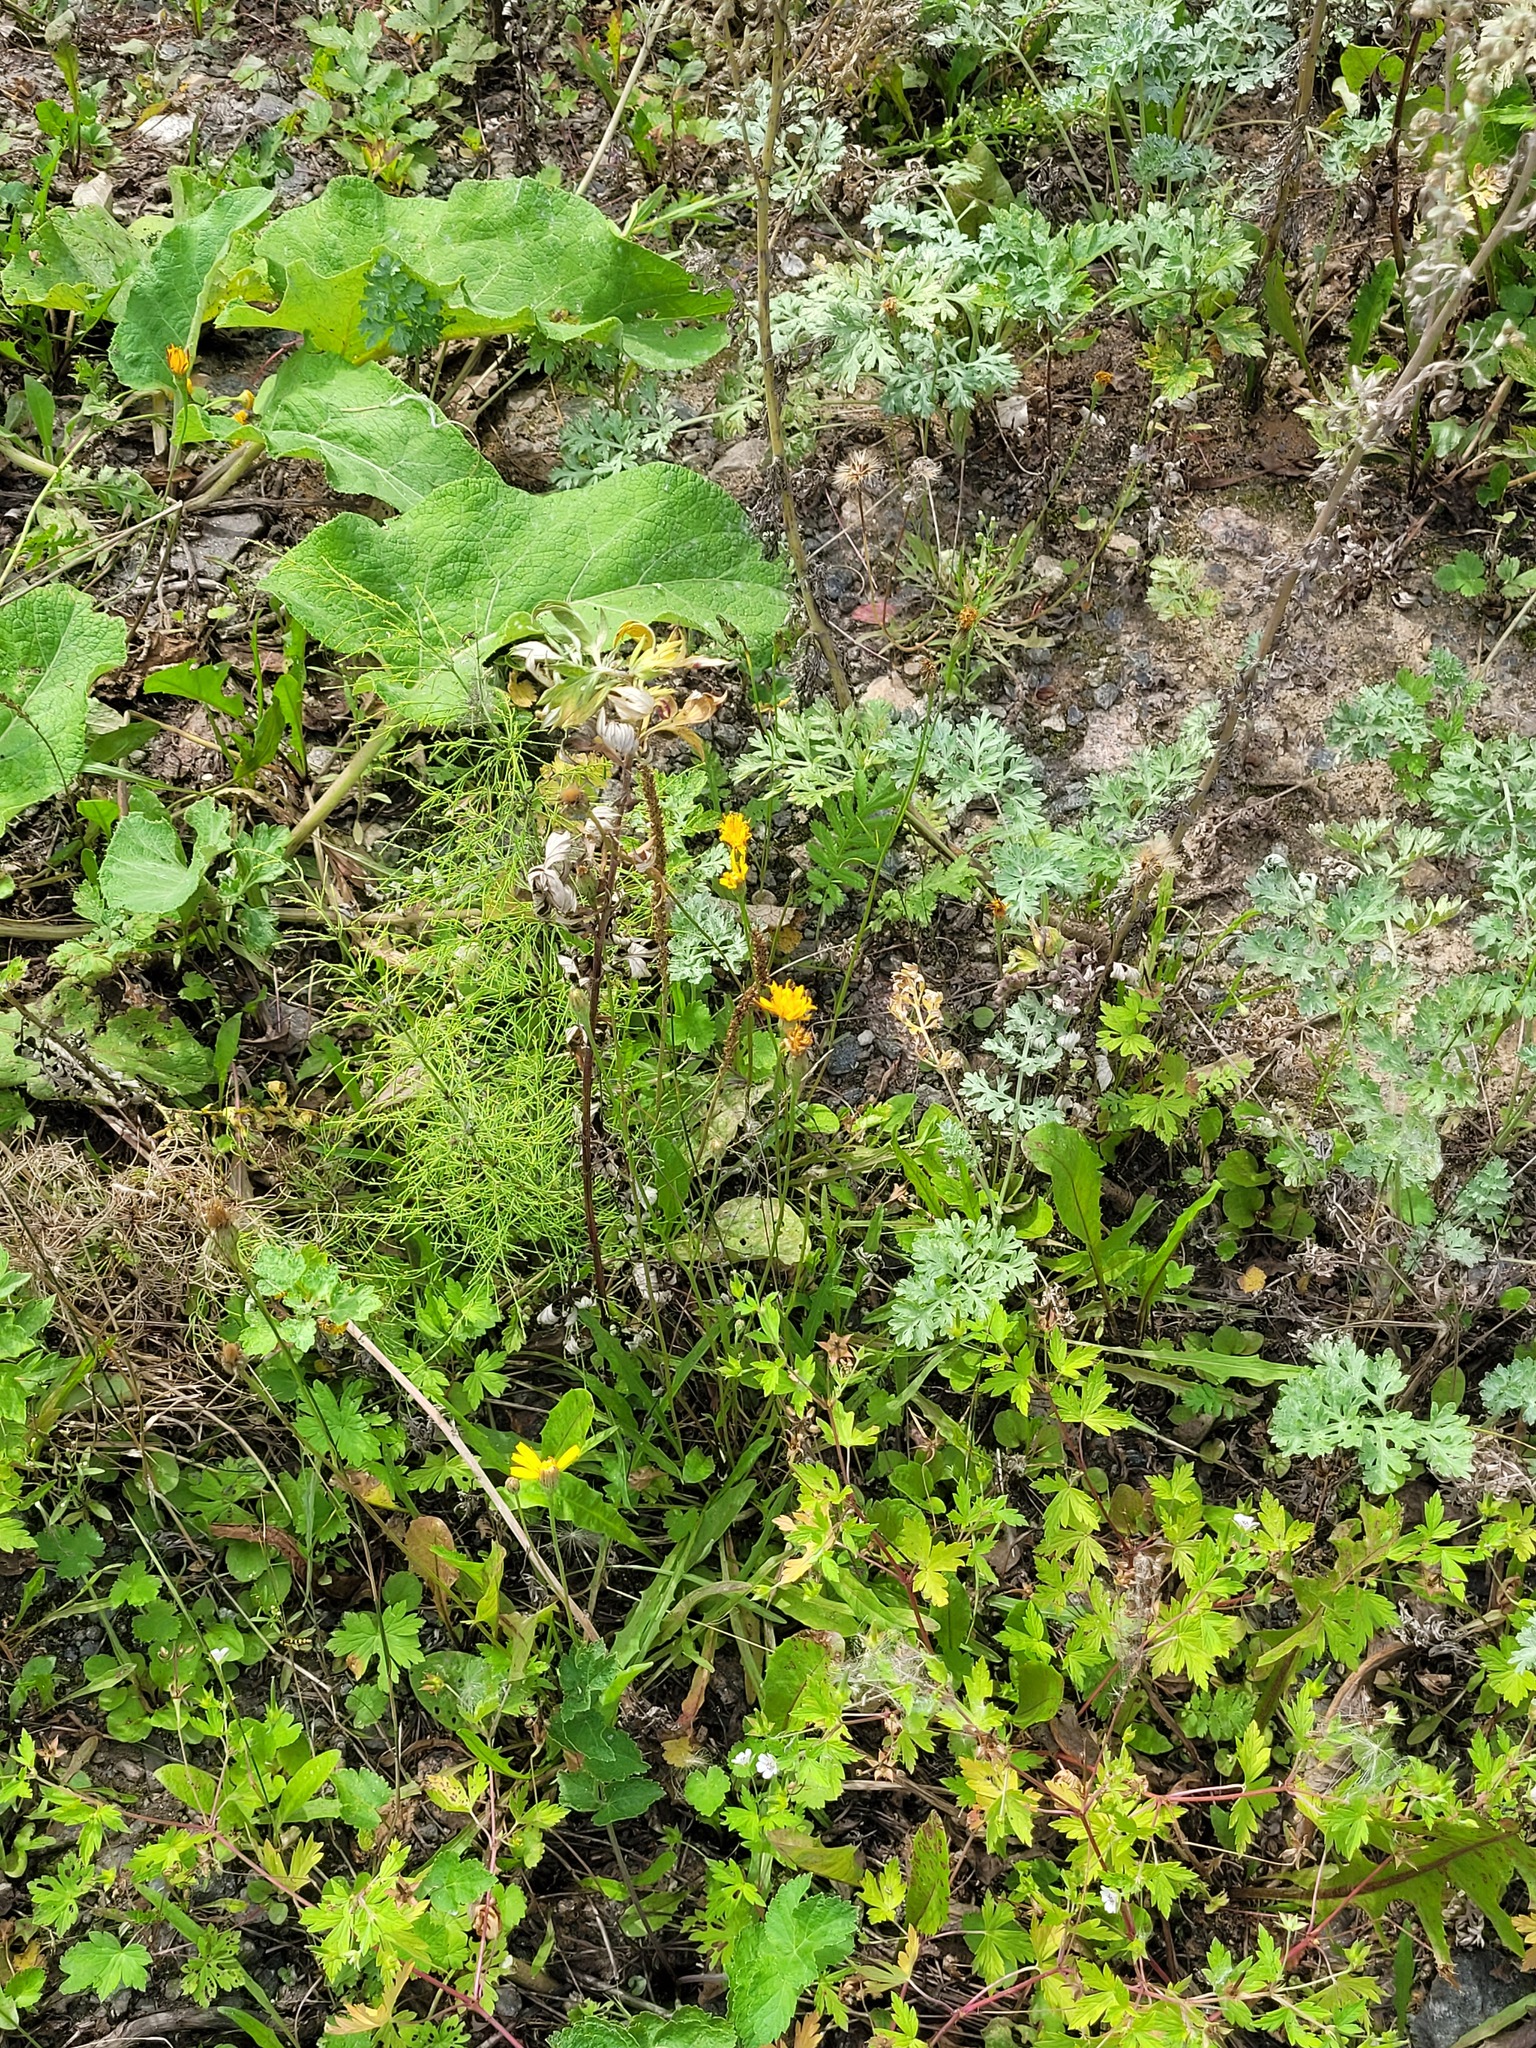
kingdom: Plantae
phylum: Tracheophyta
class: Magnoliopsida
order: Asterales
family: Asteraceae
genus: Scorzoneroides
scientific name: Scorzoneroides autumnalis
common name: Autumn hawkbit
